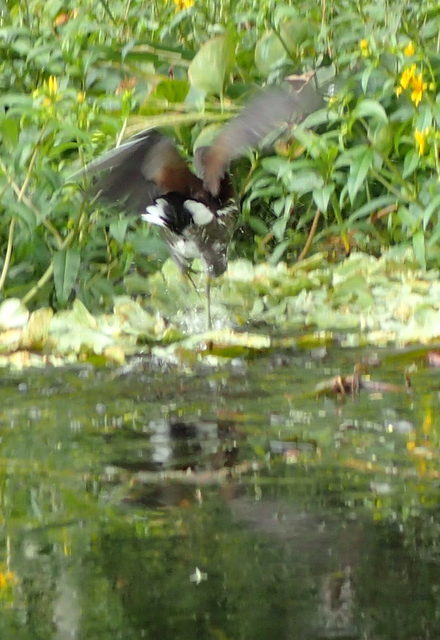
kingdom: Animalia
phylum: Chordata
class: Aves
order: Gruiformes
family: Rallidae
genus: Gallinula
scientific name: Gallinula chloropus
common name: Common moorhen
